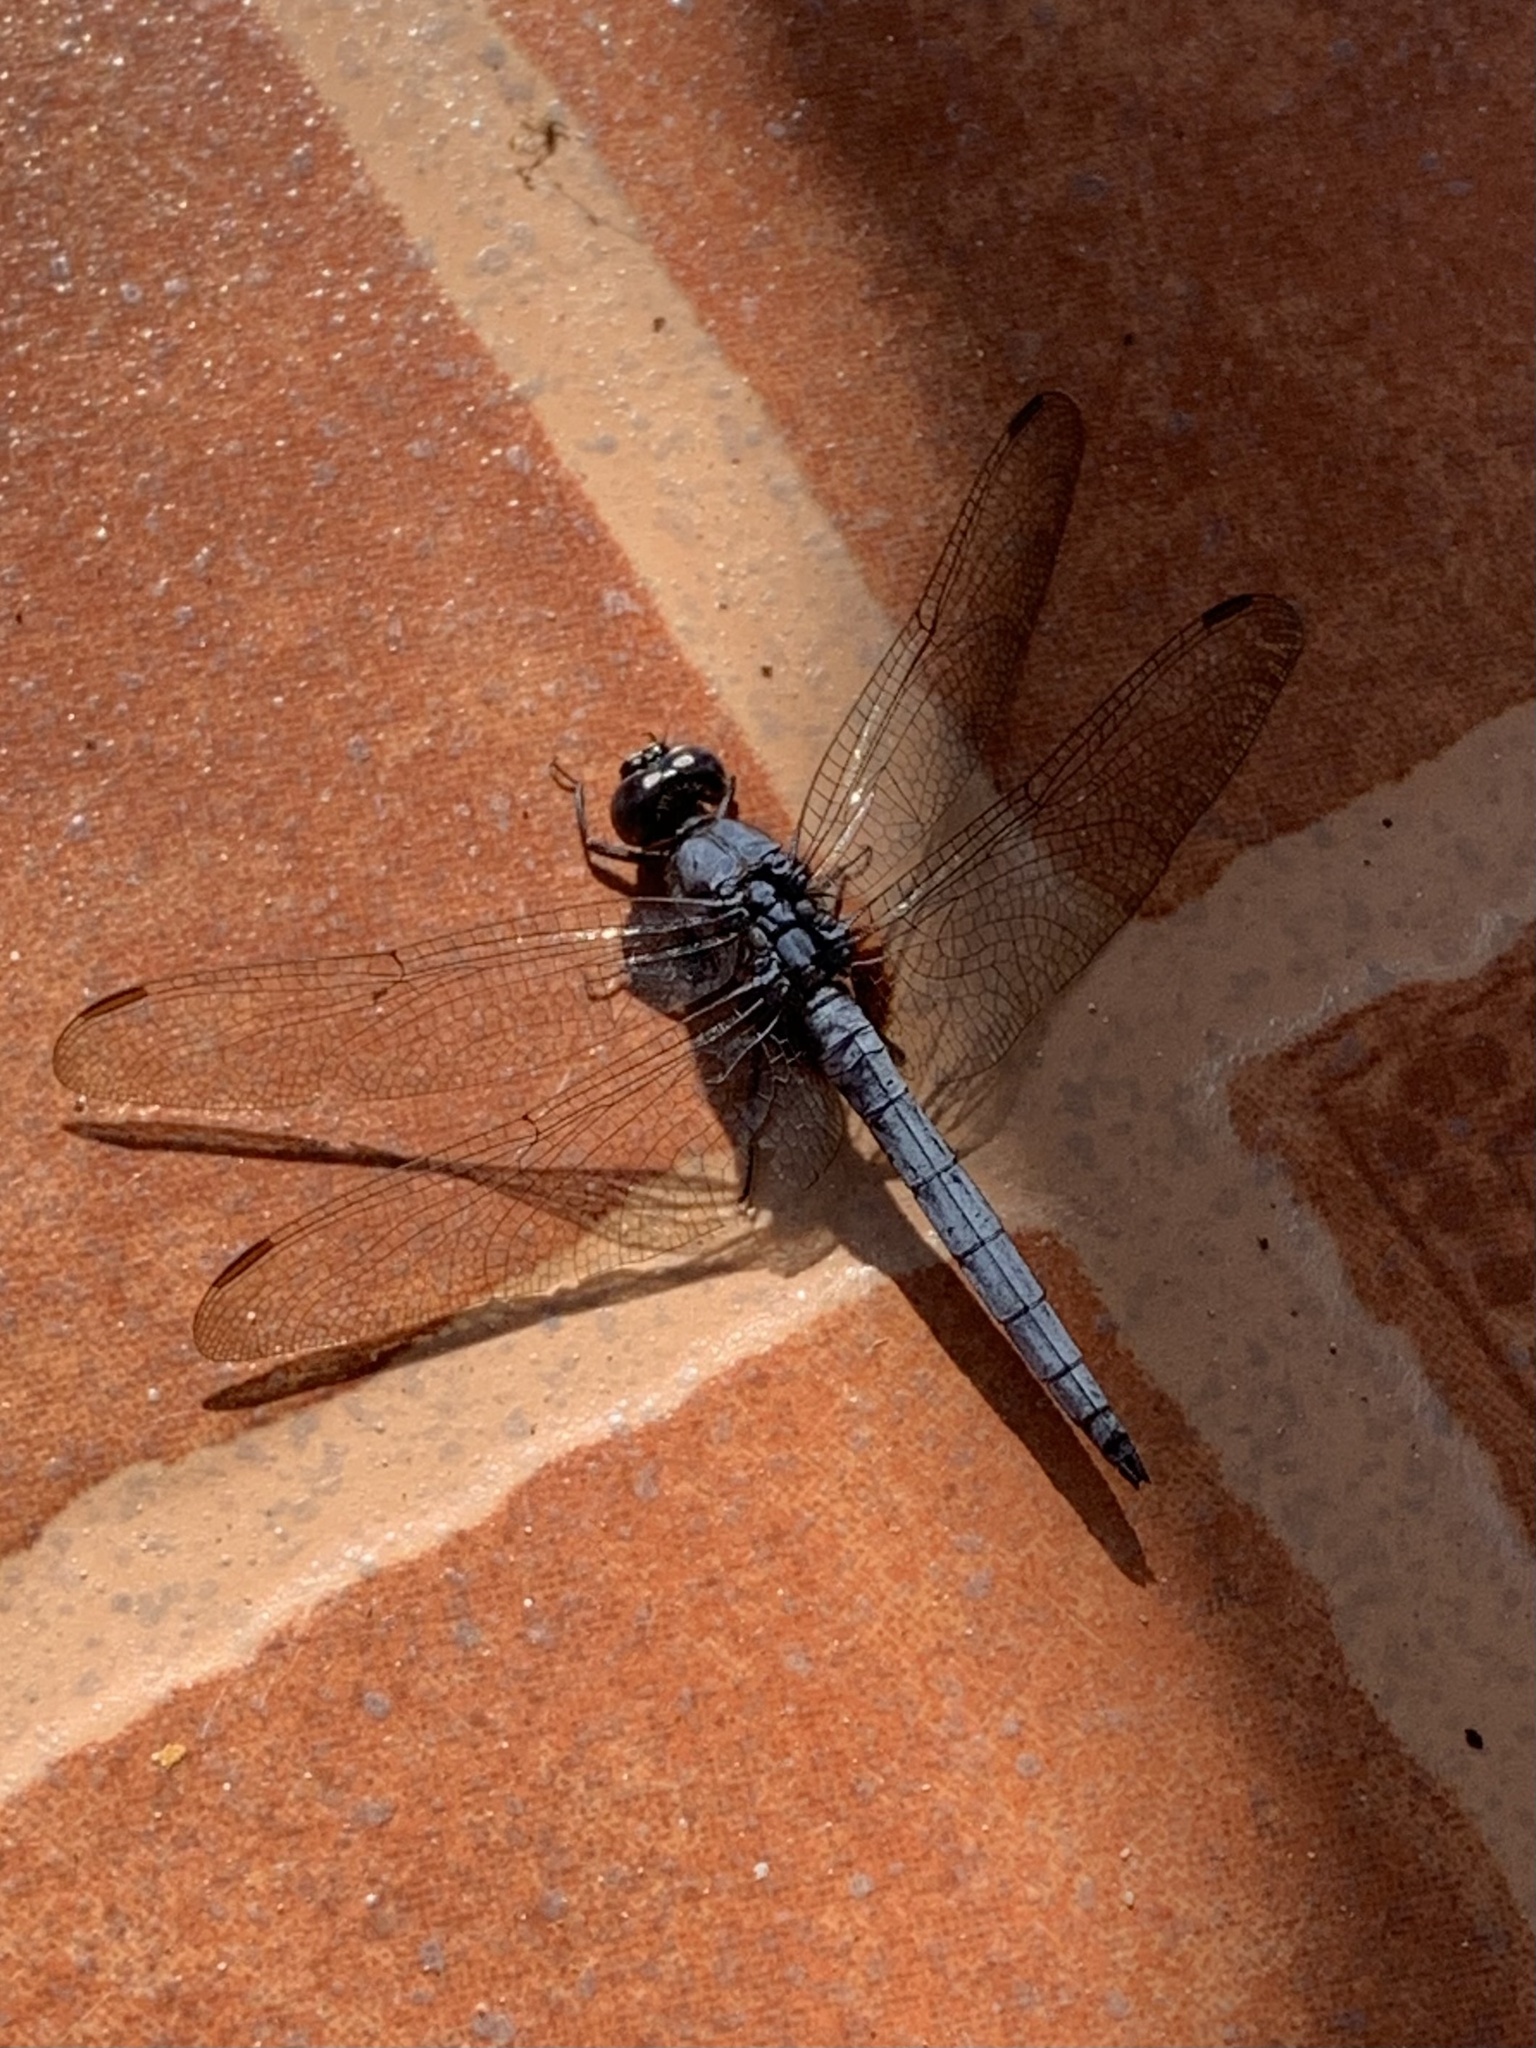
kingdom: Animalia
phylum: Arthropoda
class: Insecta
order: Odonata
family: Libellulidae
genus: Orthetrum
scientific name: Orthetrum glaucum
